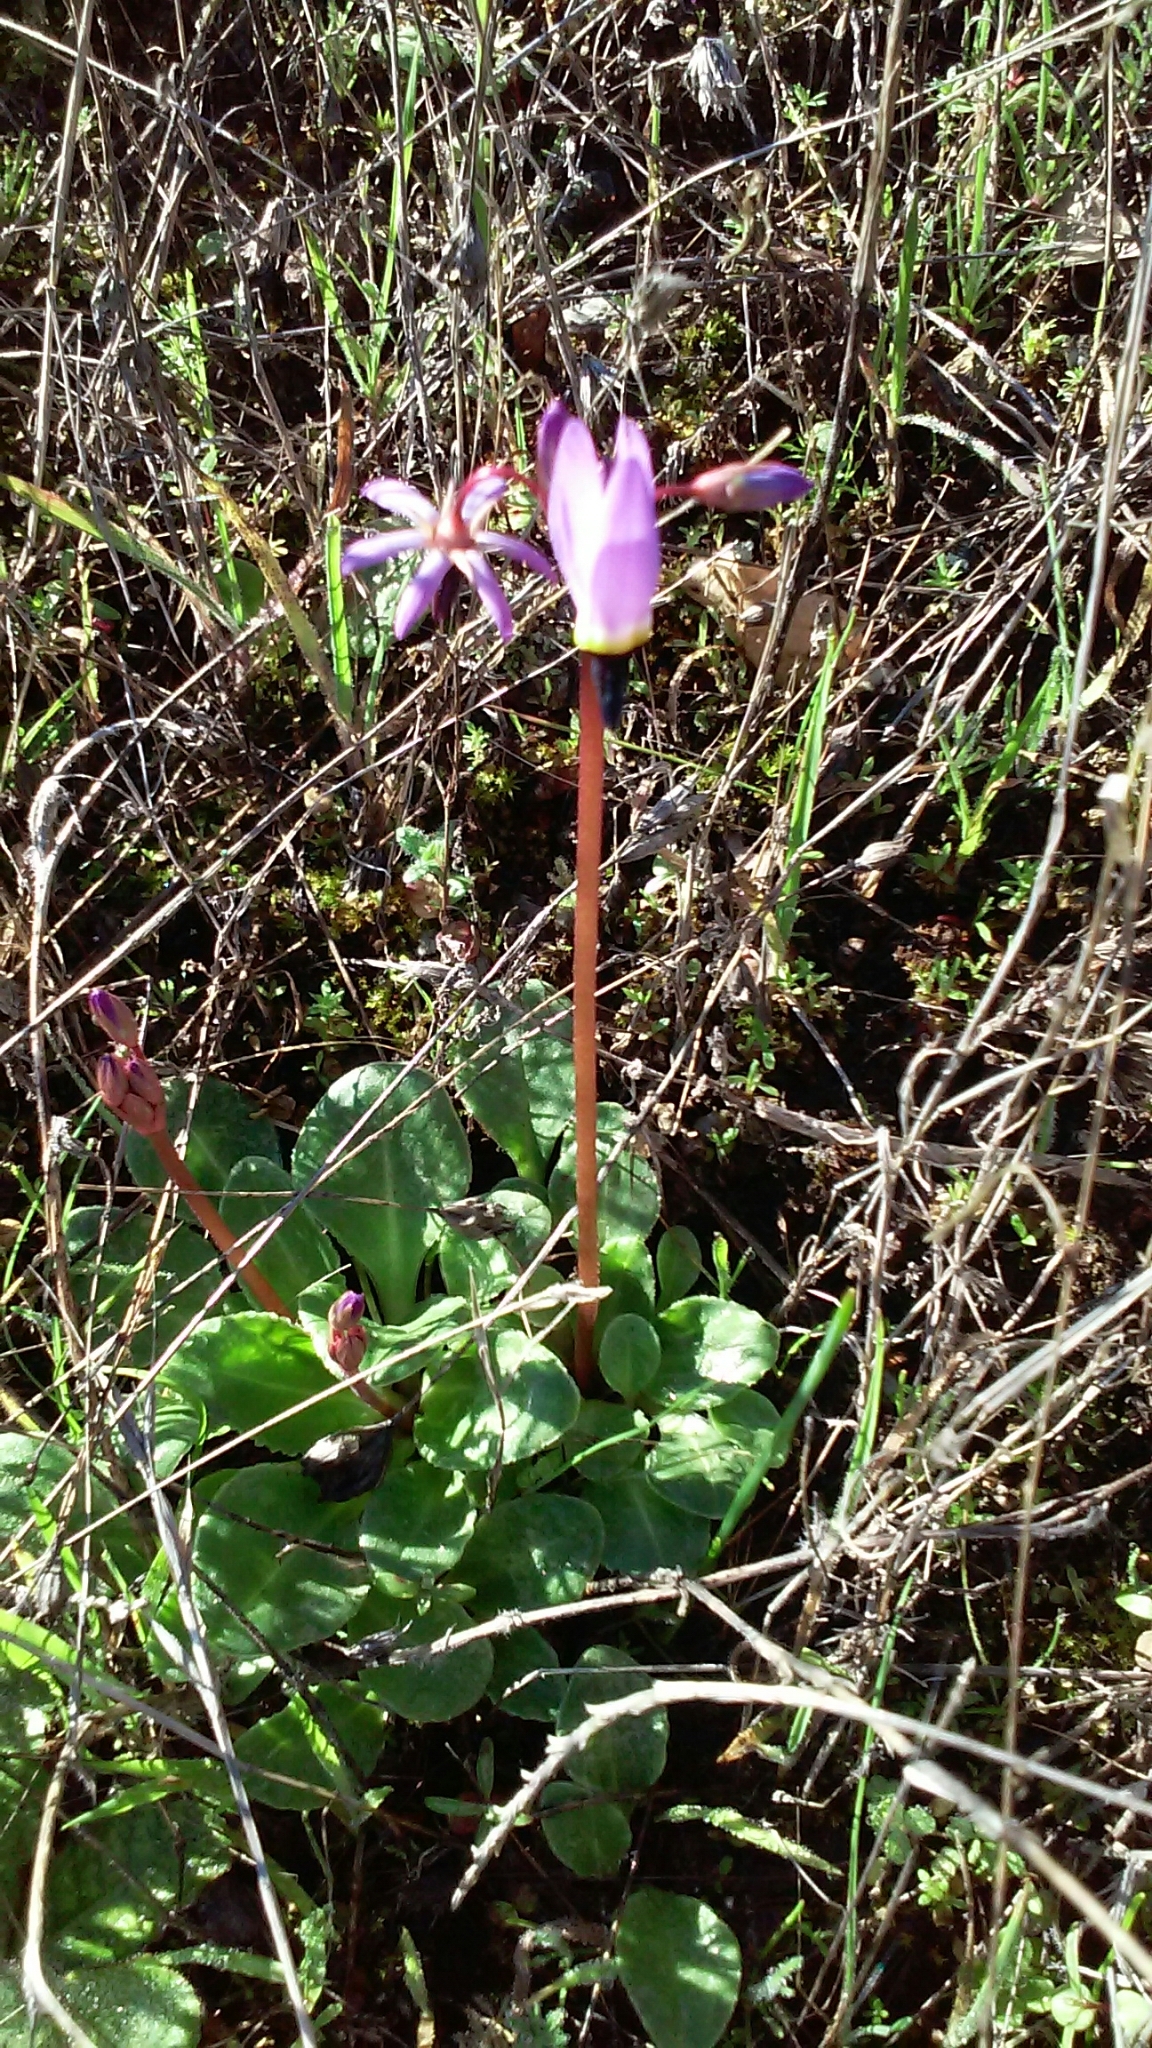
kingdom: Plantae
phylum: Tracheophyta
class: Magnoliopsida
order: Ericales
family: Primulaceae
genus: Dodecatheon
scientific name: Dodecatheon hendersonii
